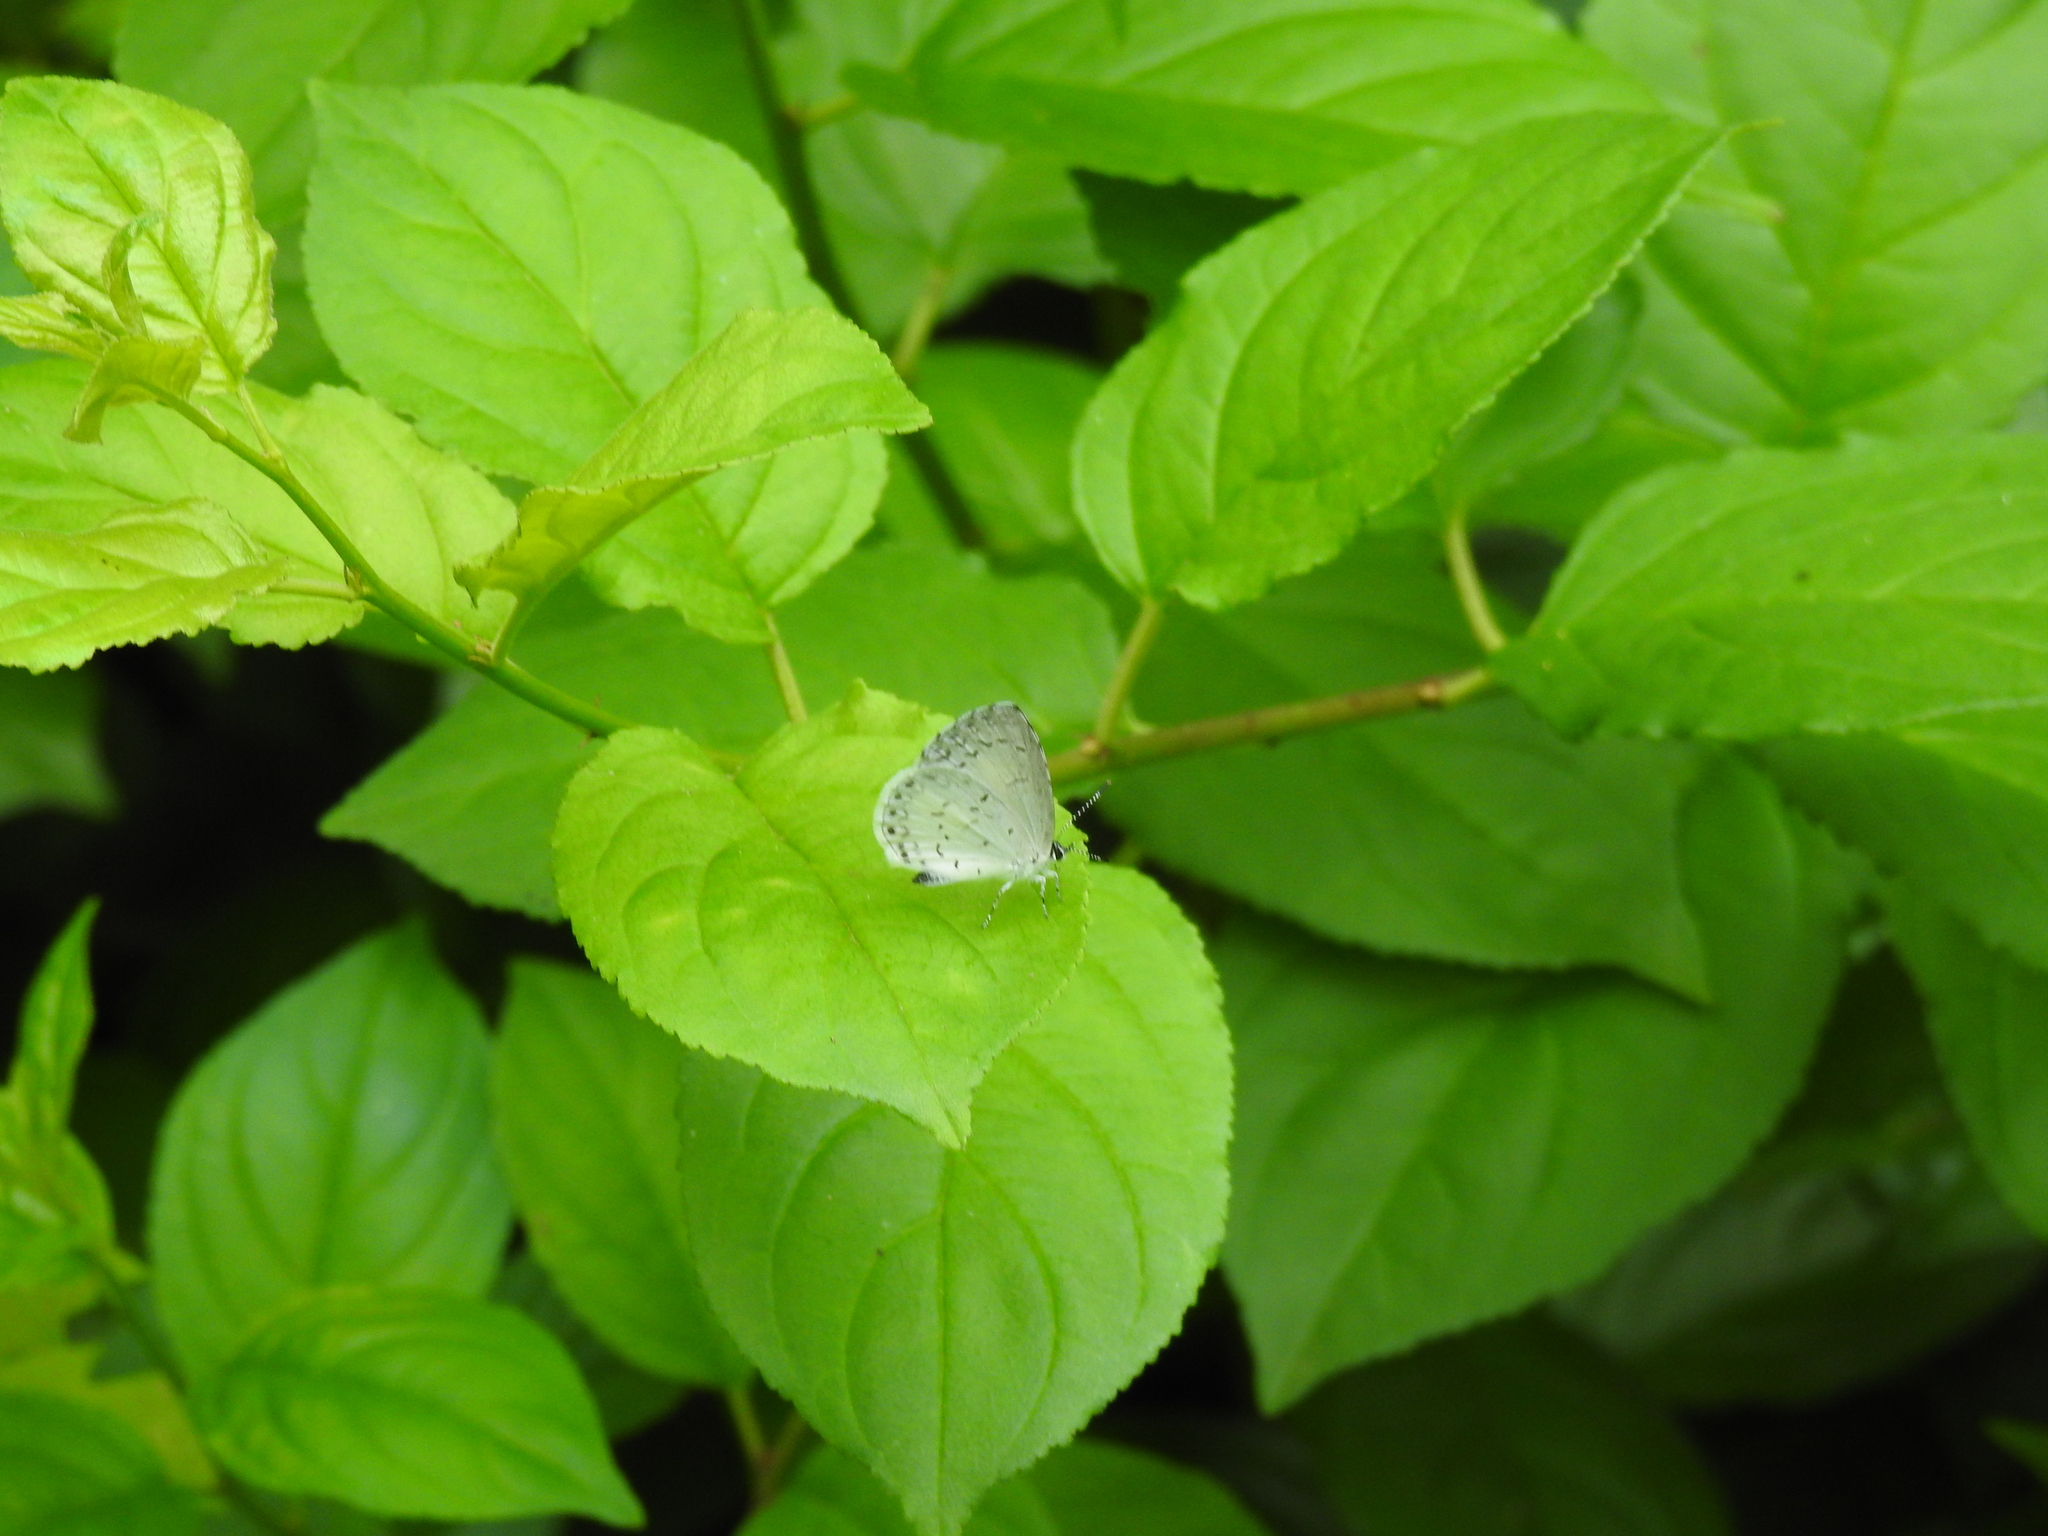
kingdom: Animalia
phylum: Arthropoda
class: Insecta
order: Lepidoptera
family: Lycaenidae
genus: Cyaniris
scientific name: Cyaniris neglecta
